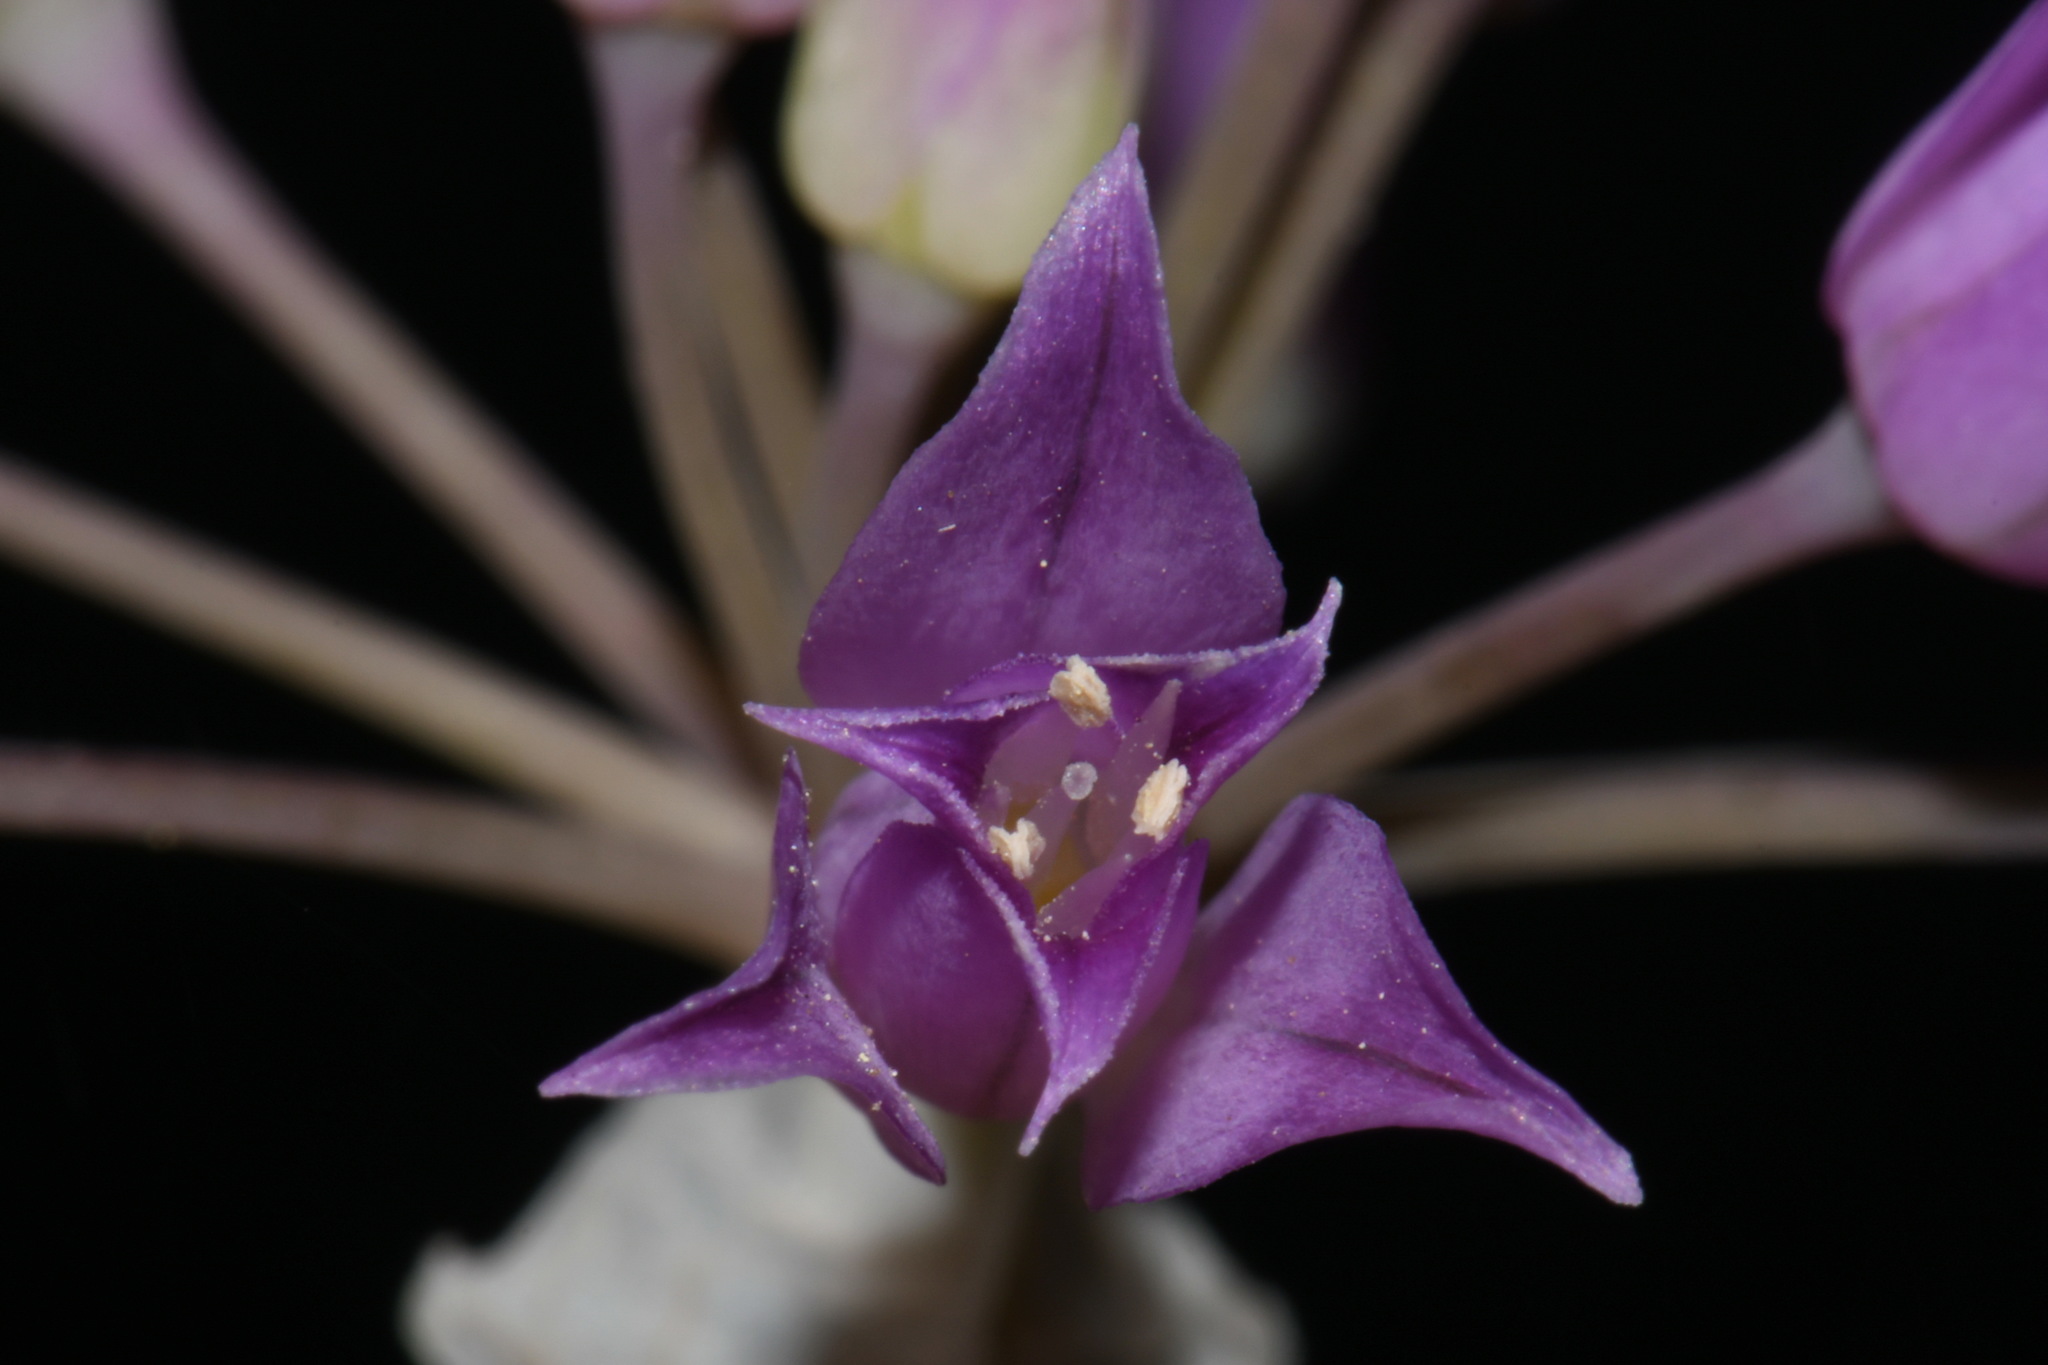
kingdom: Plantae
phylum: Tracheophyta
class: Liliopsida
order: Asparagales
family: Amaryllidaceae
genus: Allium
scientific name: Allium acuminatum
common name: Hooker's onion
